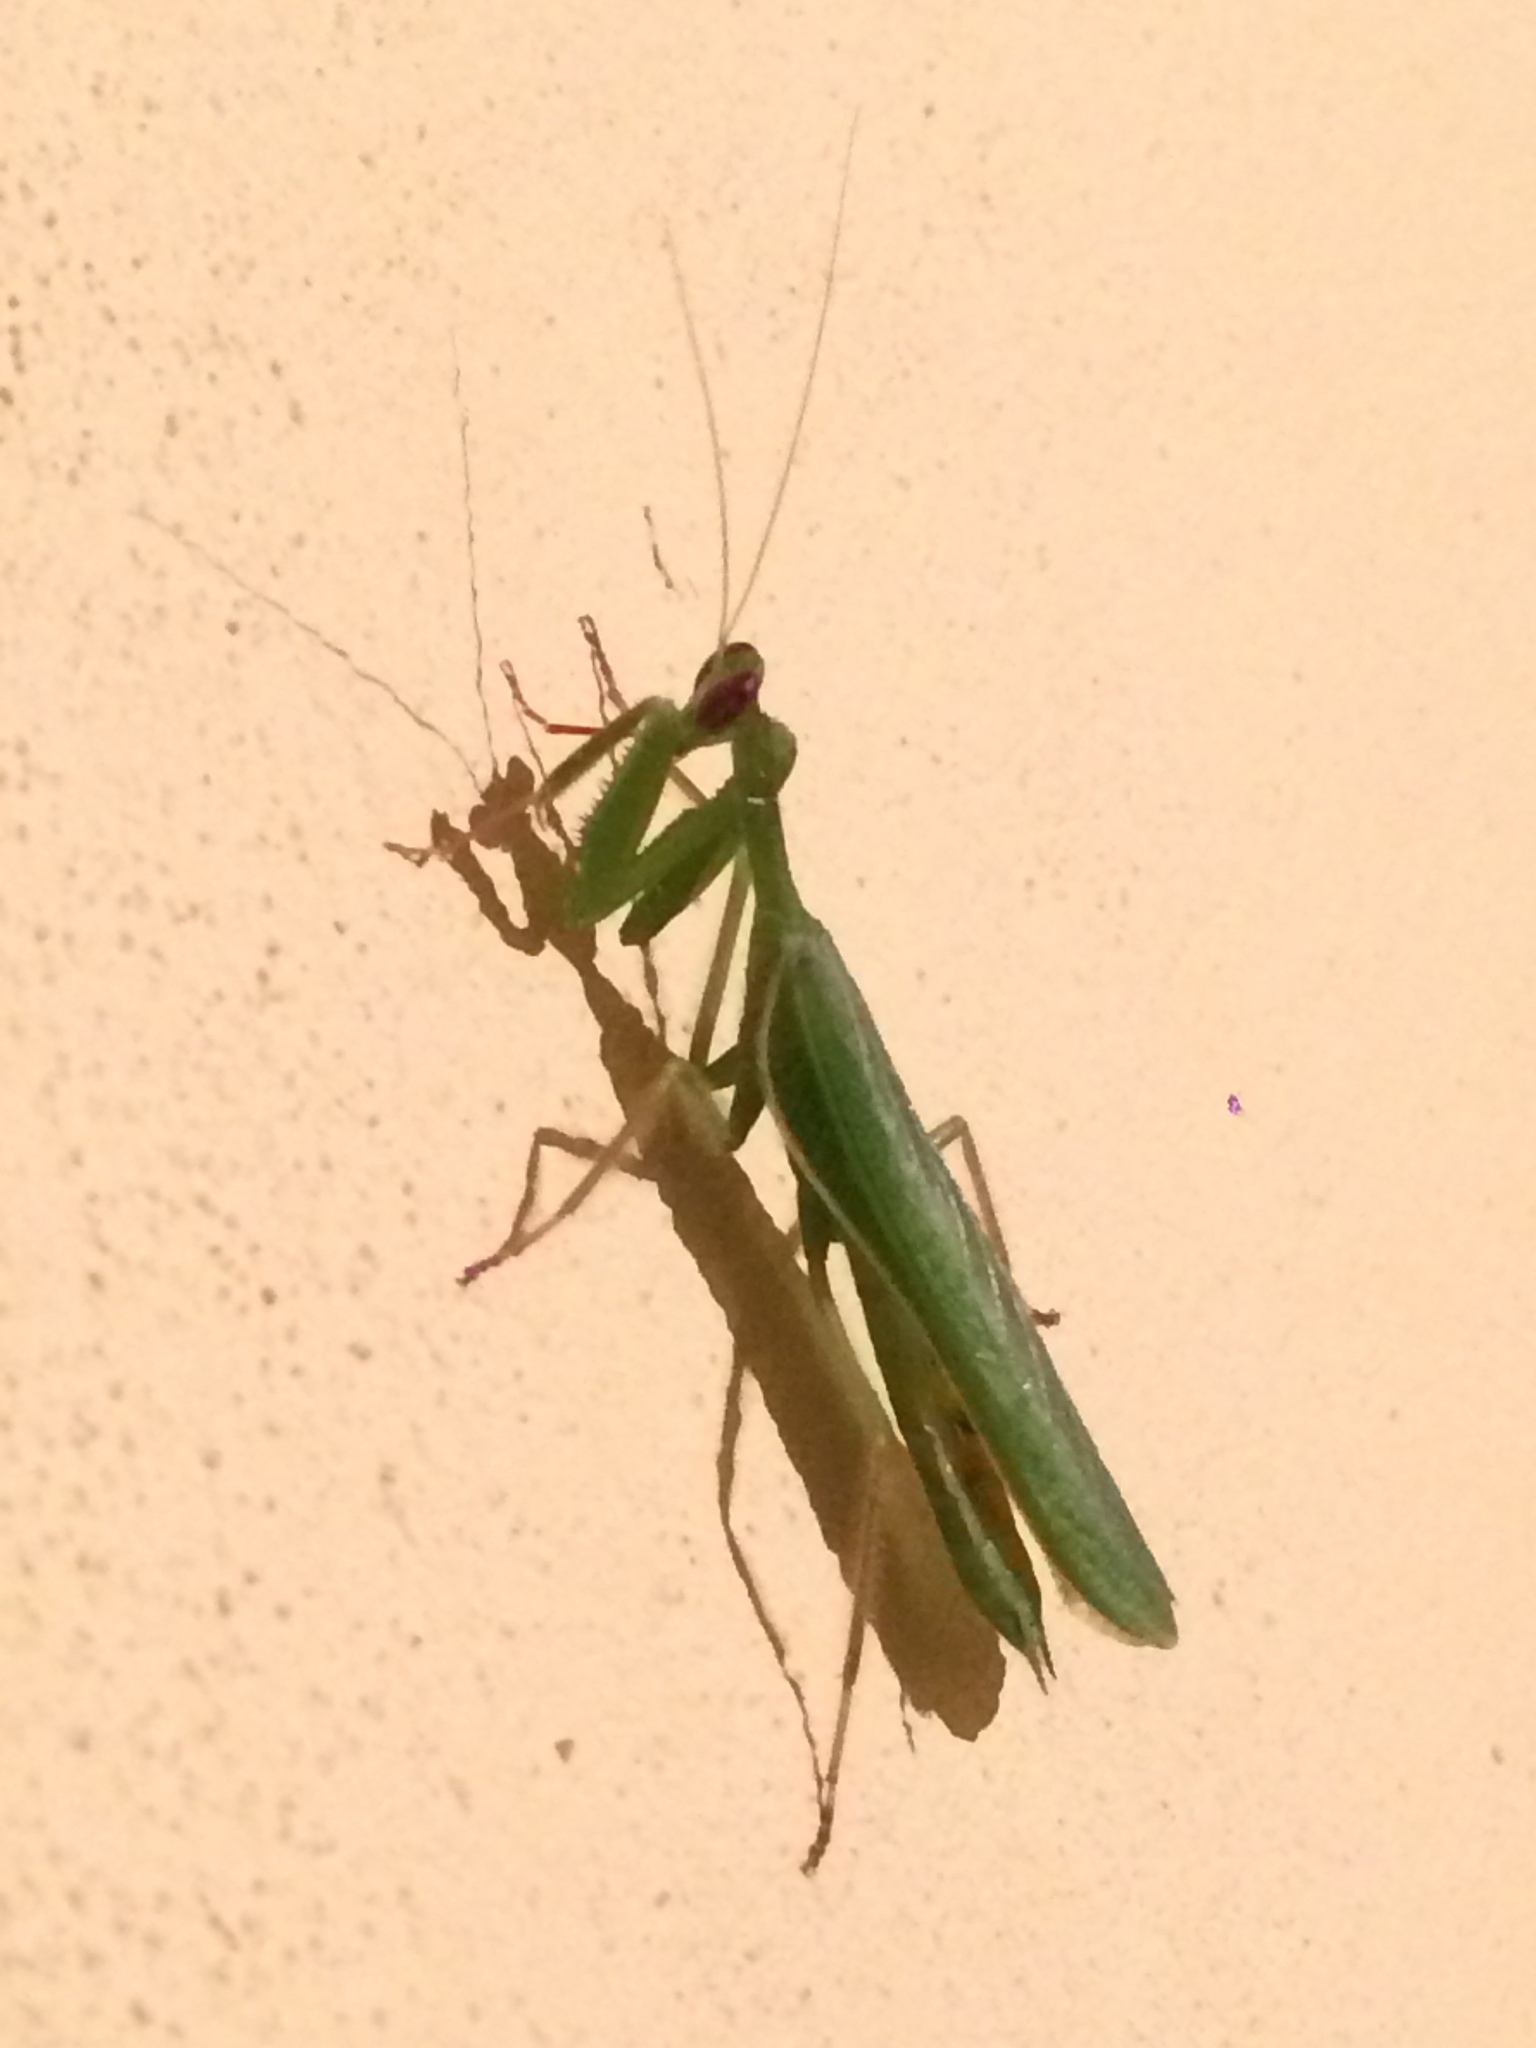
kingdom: Animalia
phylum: Arthropoda
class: Insecta
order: Mantodea
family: Photinaidae
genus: Photiomantis
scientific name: Photiomantis planicephala
